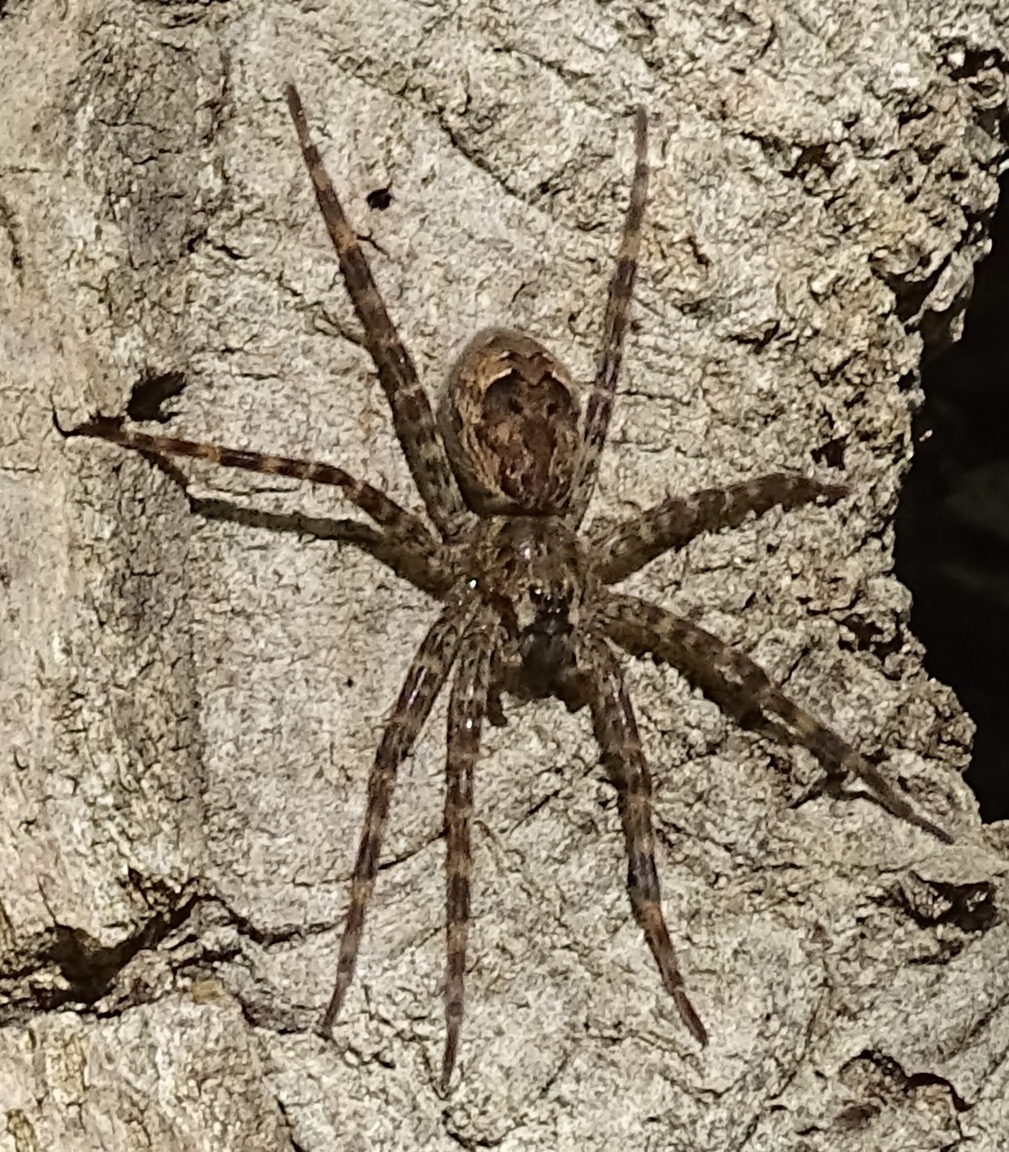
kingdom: Animalia
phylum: Arthropoda
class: Arachnida
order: Araneae
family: Pisauridae
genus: Dolomedes
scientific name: Dolomedes tenebrosus
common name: Dark fishing spider
